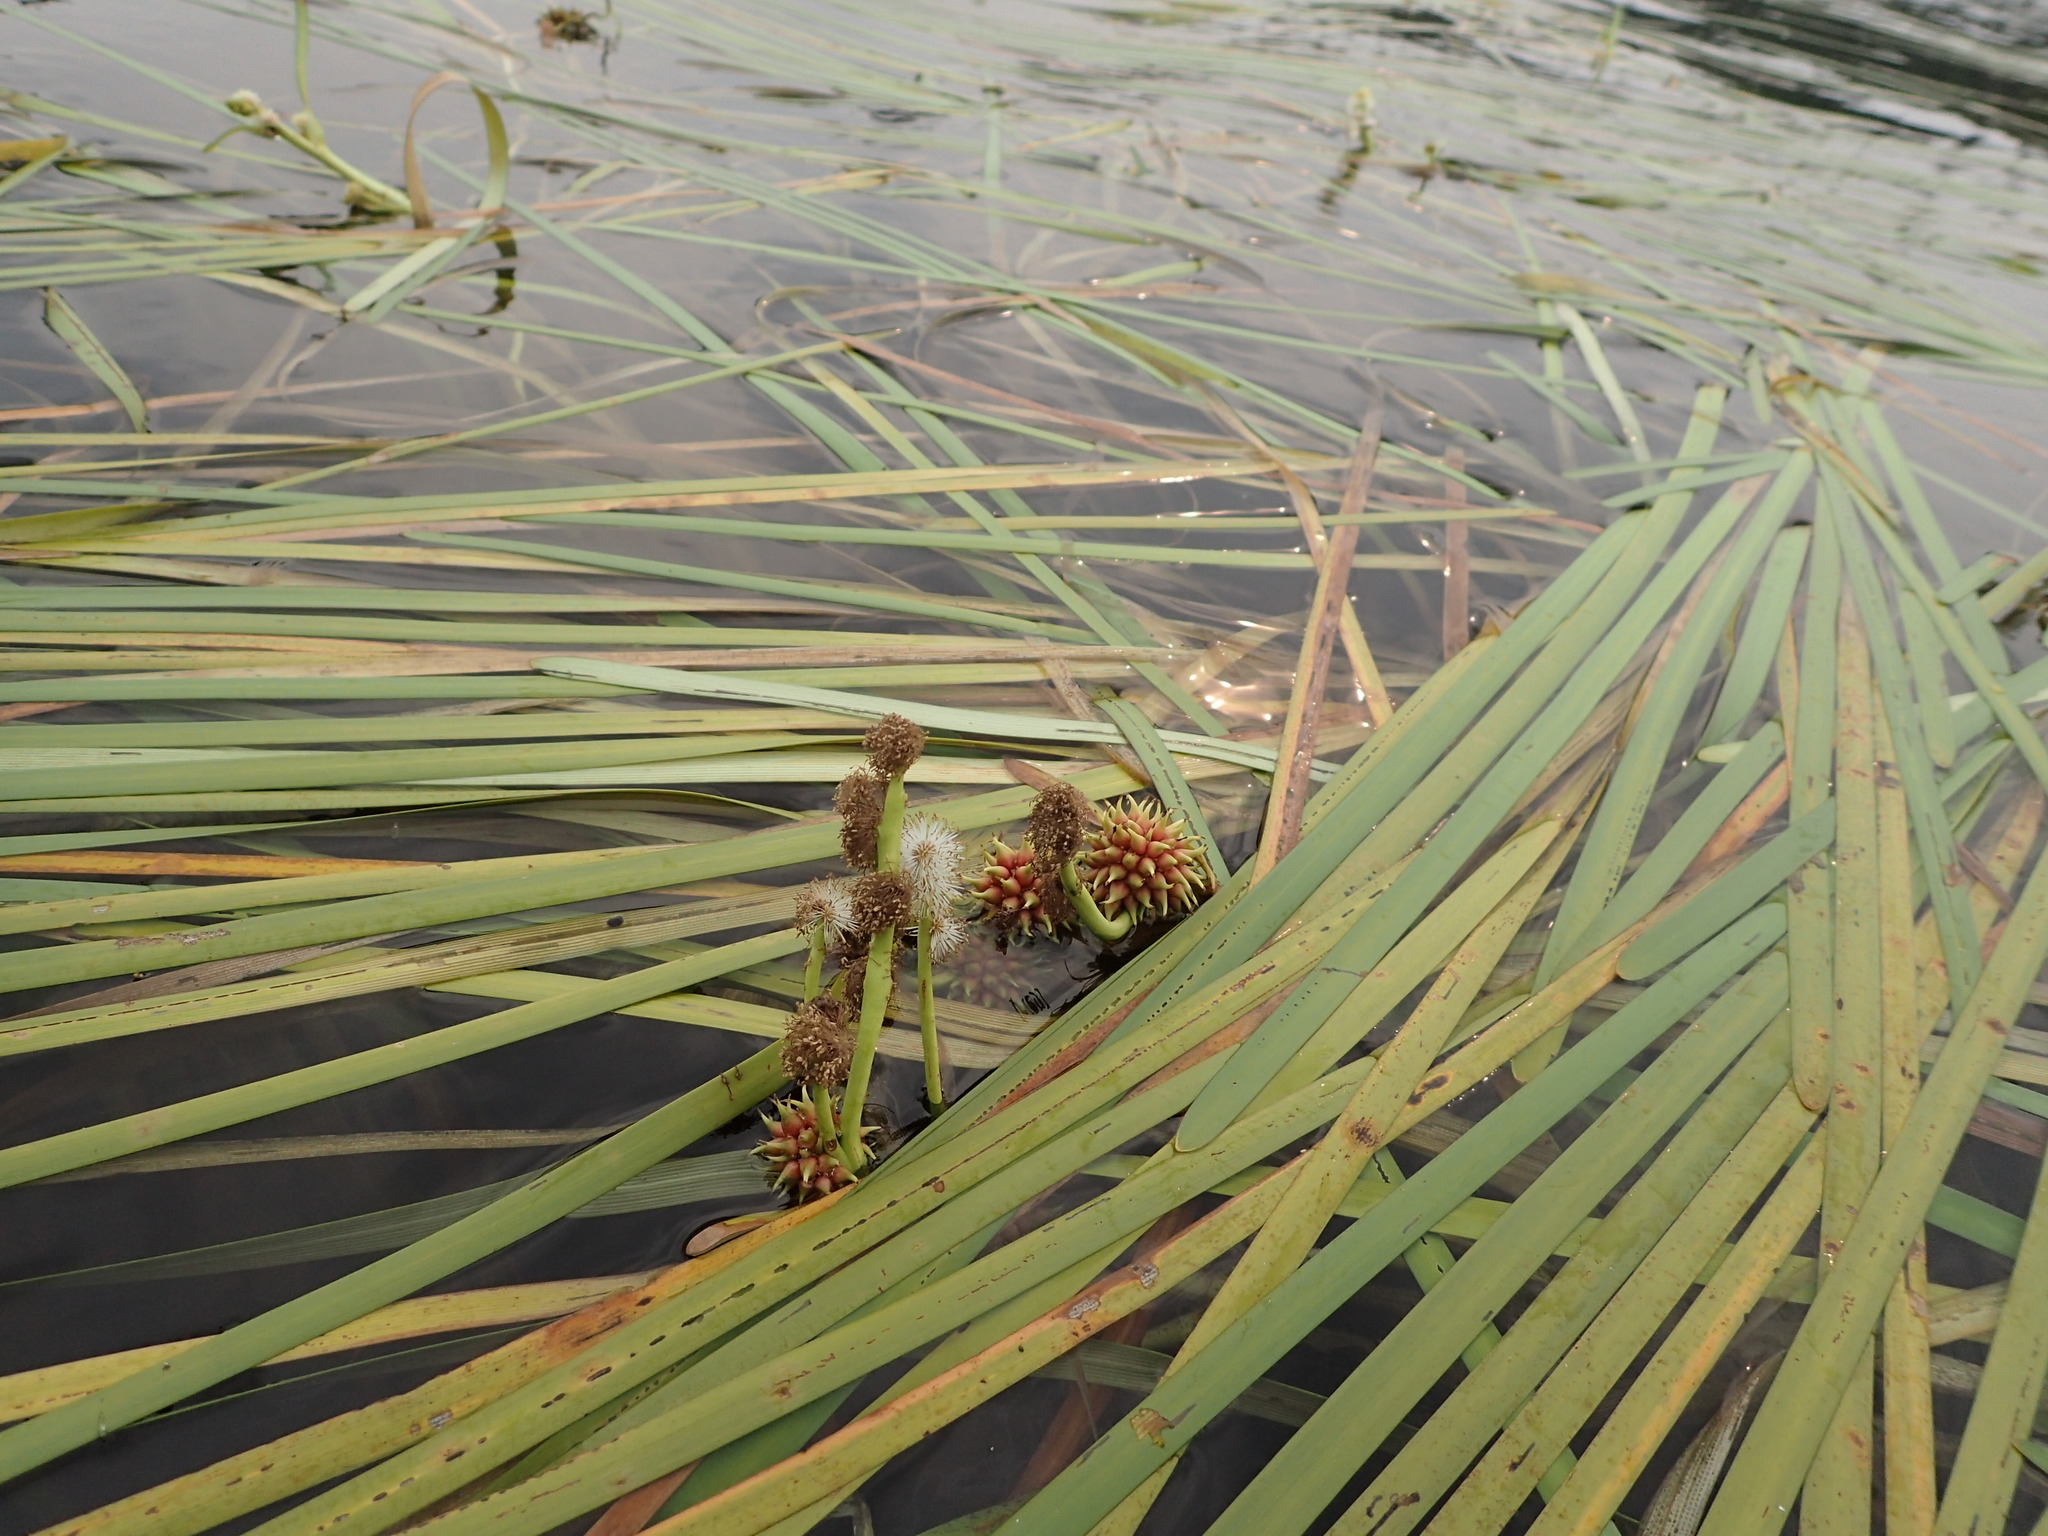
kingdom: Plantae
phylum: Tracheophyta
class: Liliopsida
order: Poales
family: Typhaceae
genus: Sparganium
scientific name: Sparganium fluctuans
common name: Floating burreed
